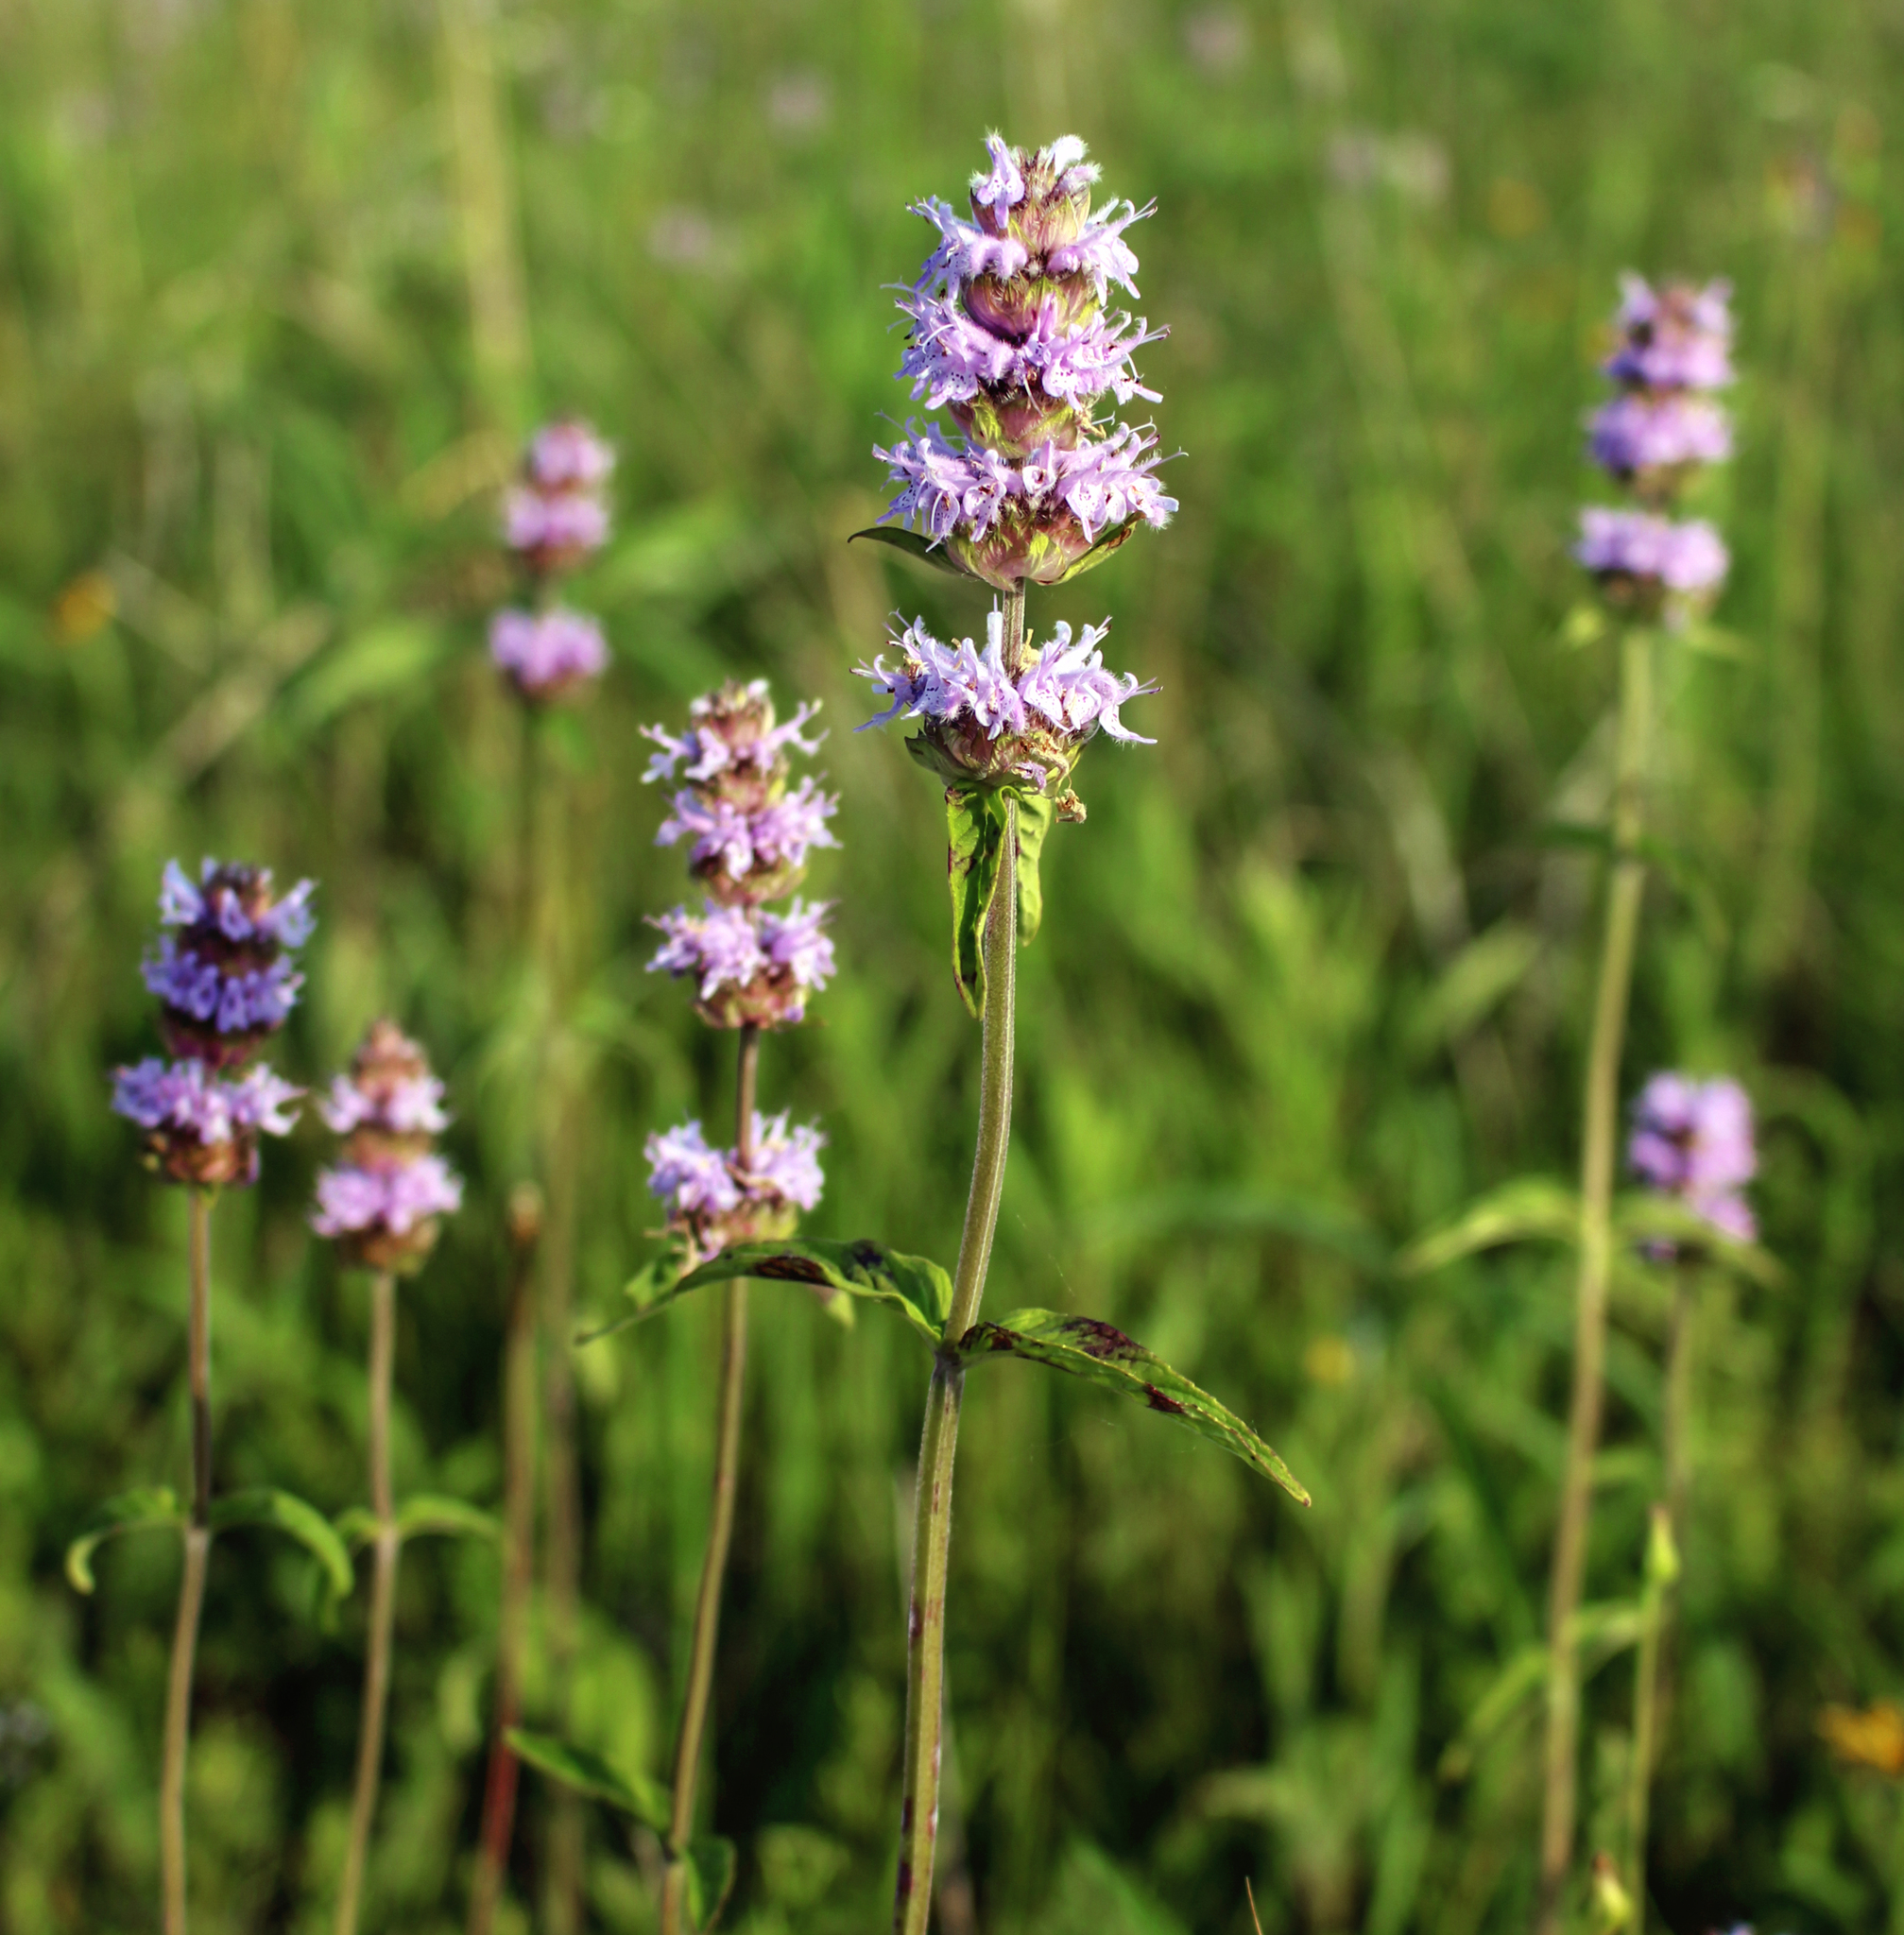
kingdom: Plantae
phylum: Tracheophyta
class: Magnoliopsida
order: Lamiales
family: Lamiaceae
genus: Blephilia
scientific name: Blephilia ciliata
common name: Downy blephilia
